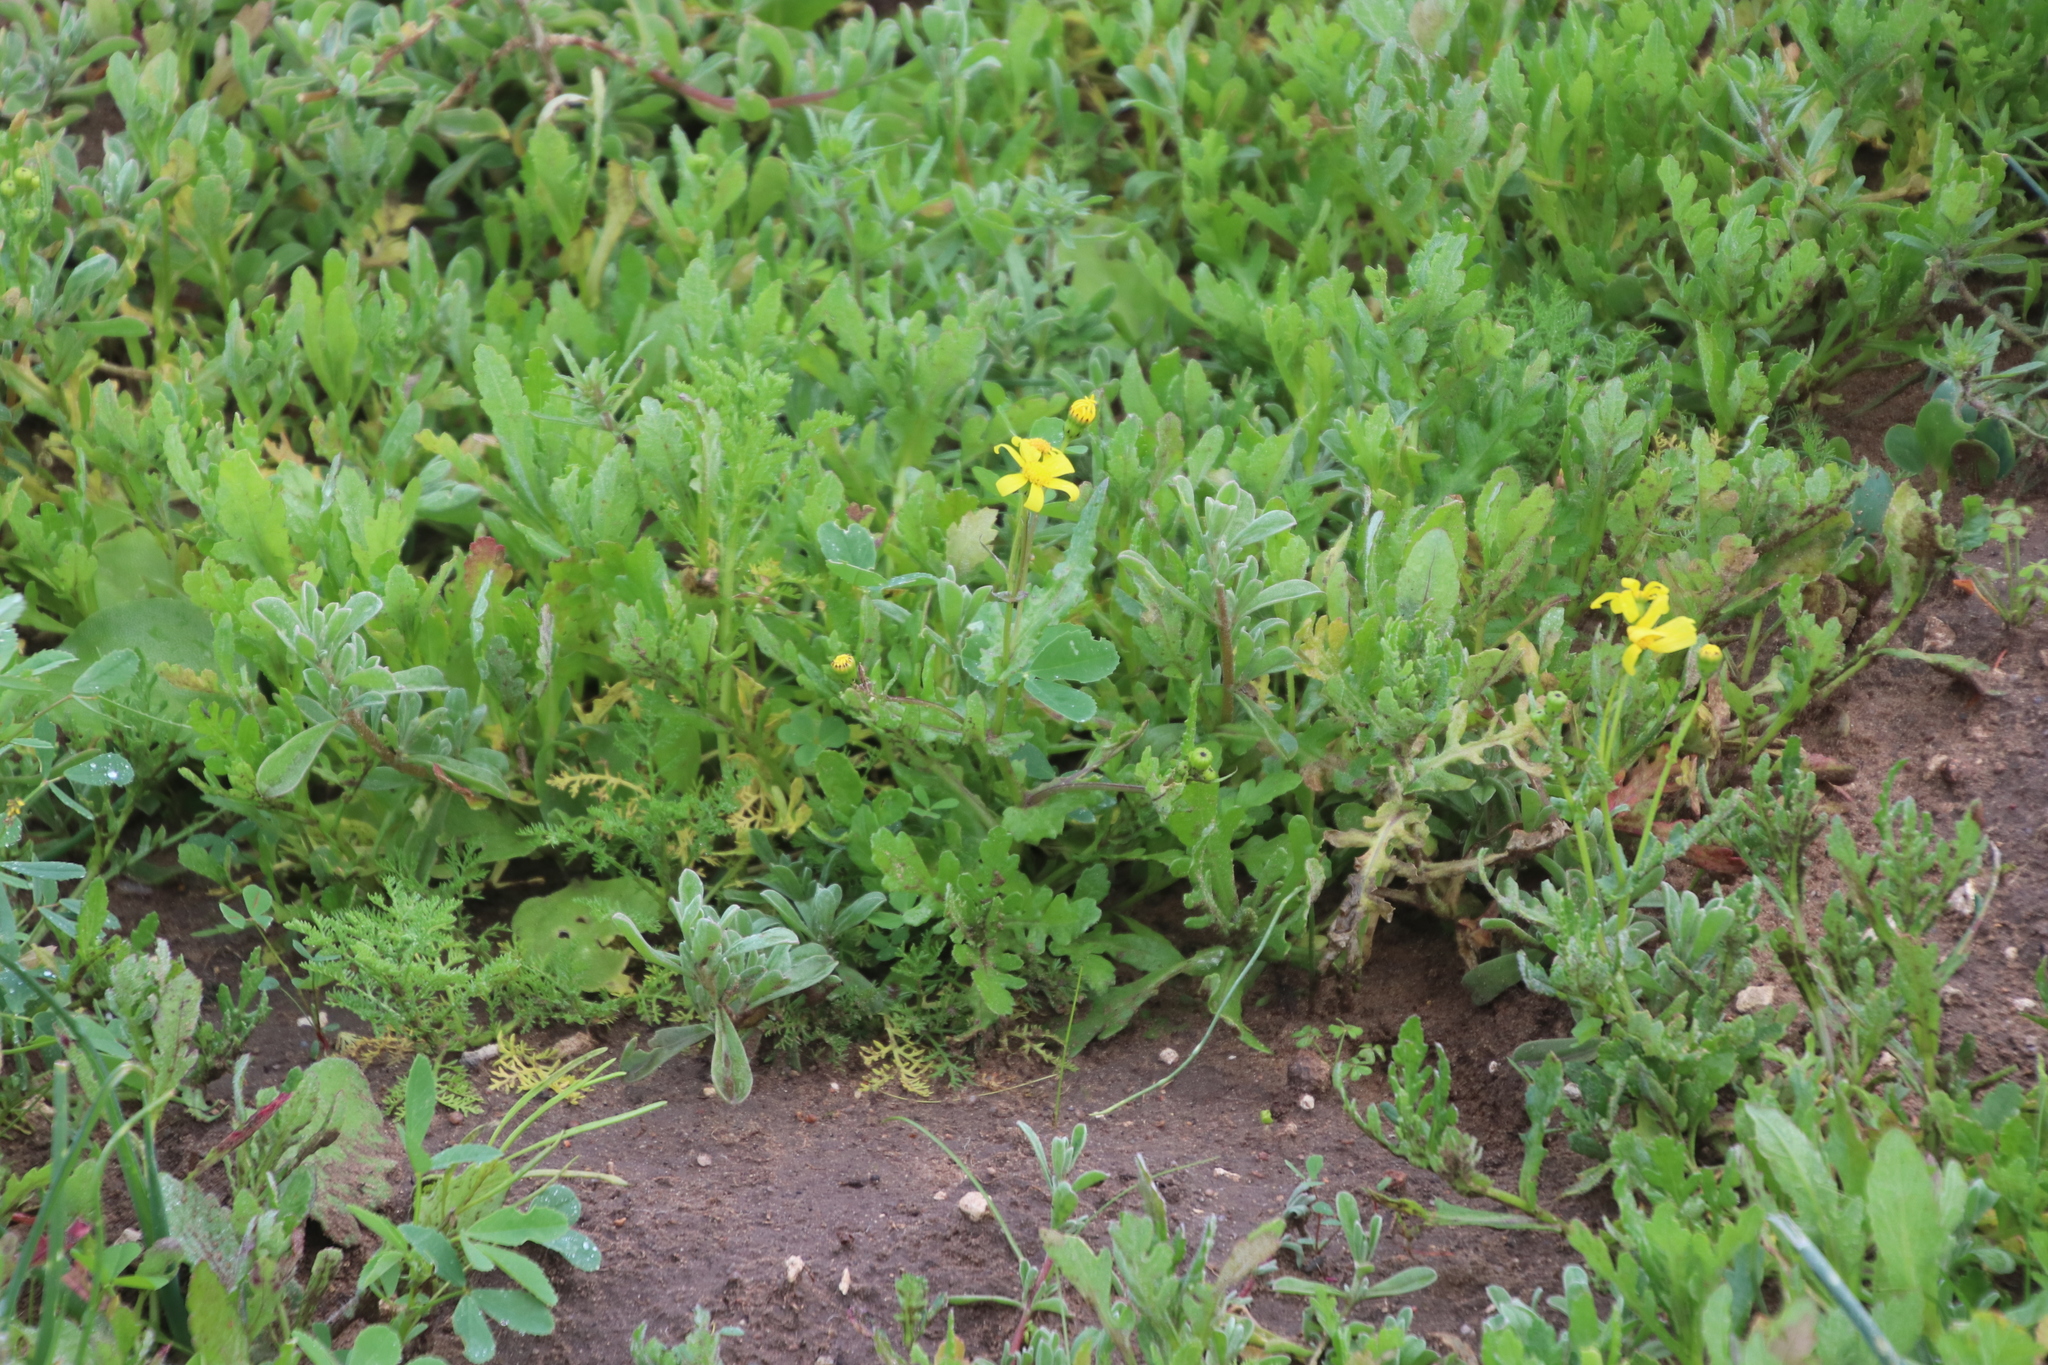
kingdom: Plantae
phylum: Tracheophyta
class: Magnoliopsida
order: Asterales
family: Asteraceae
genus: Senecio
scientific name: Senecio littoreus
